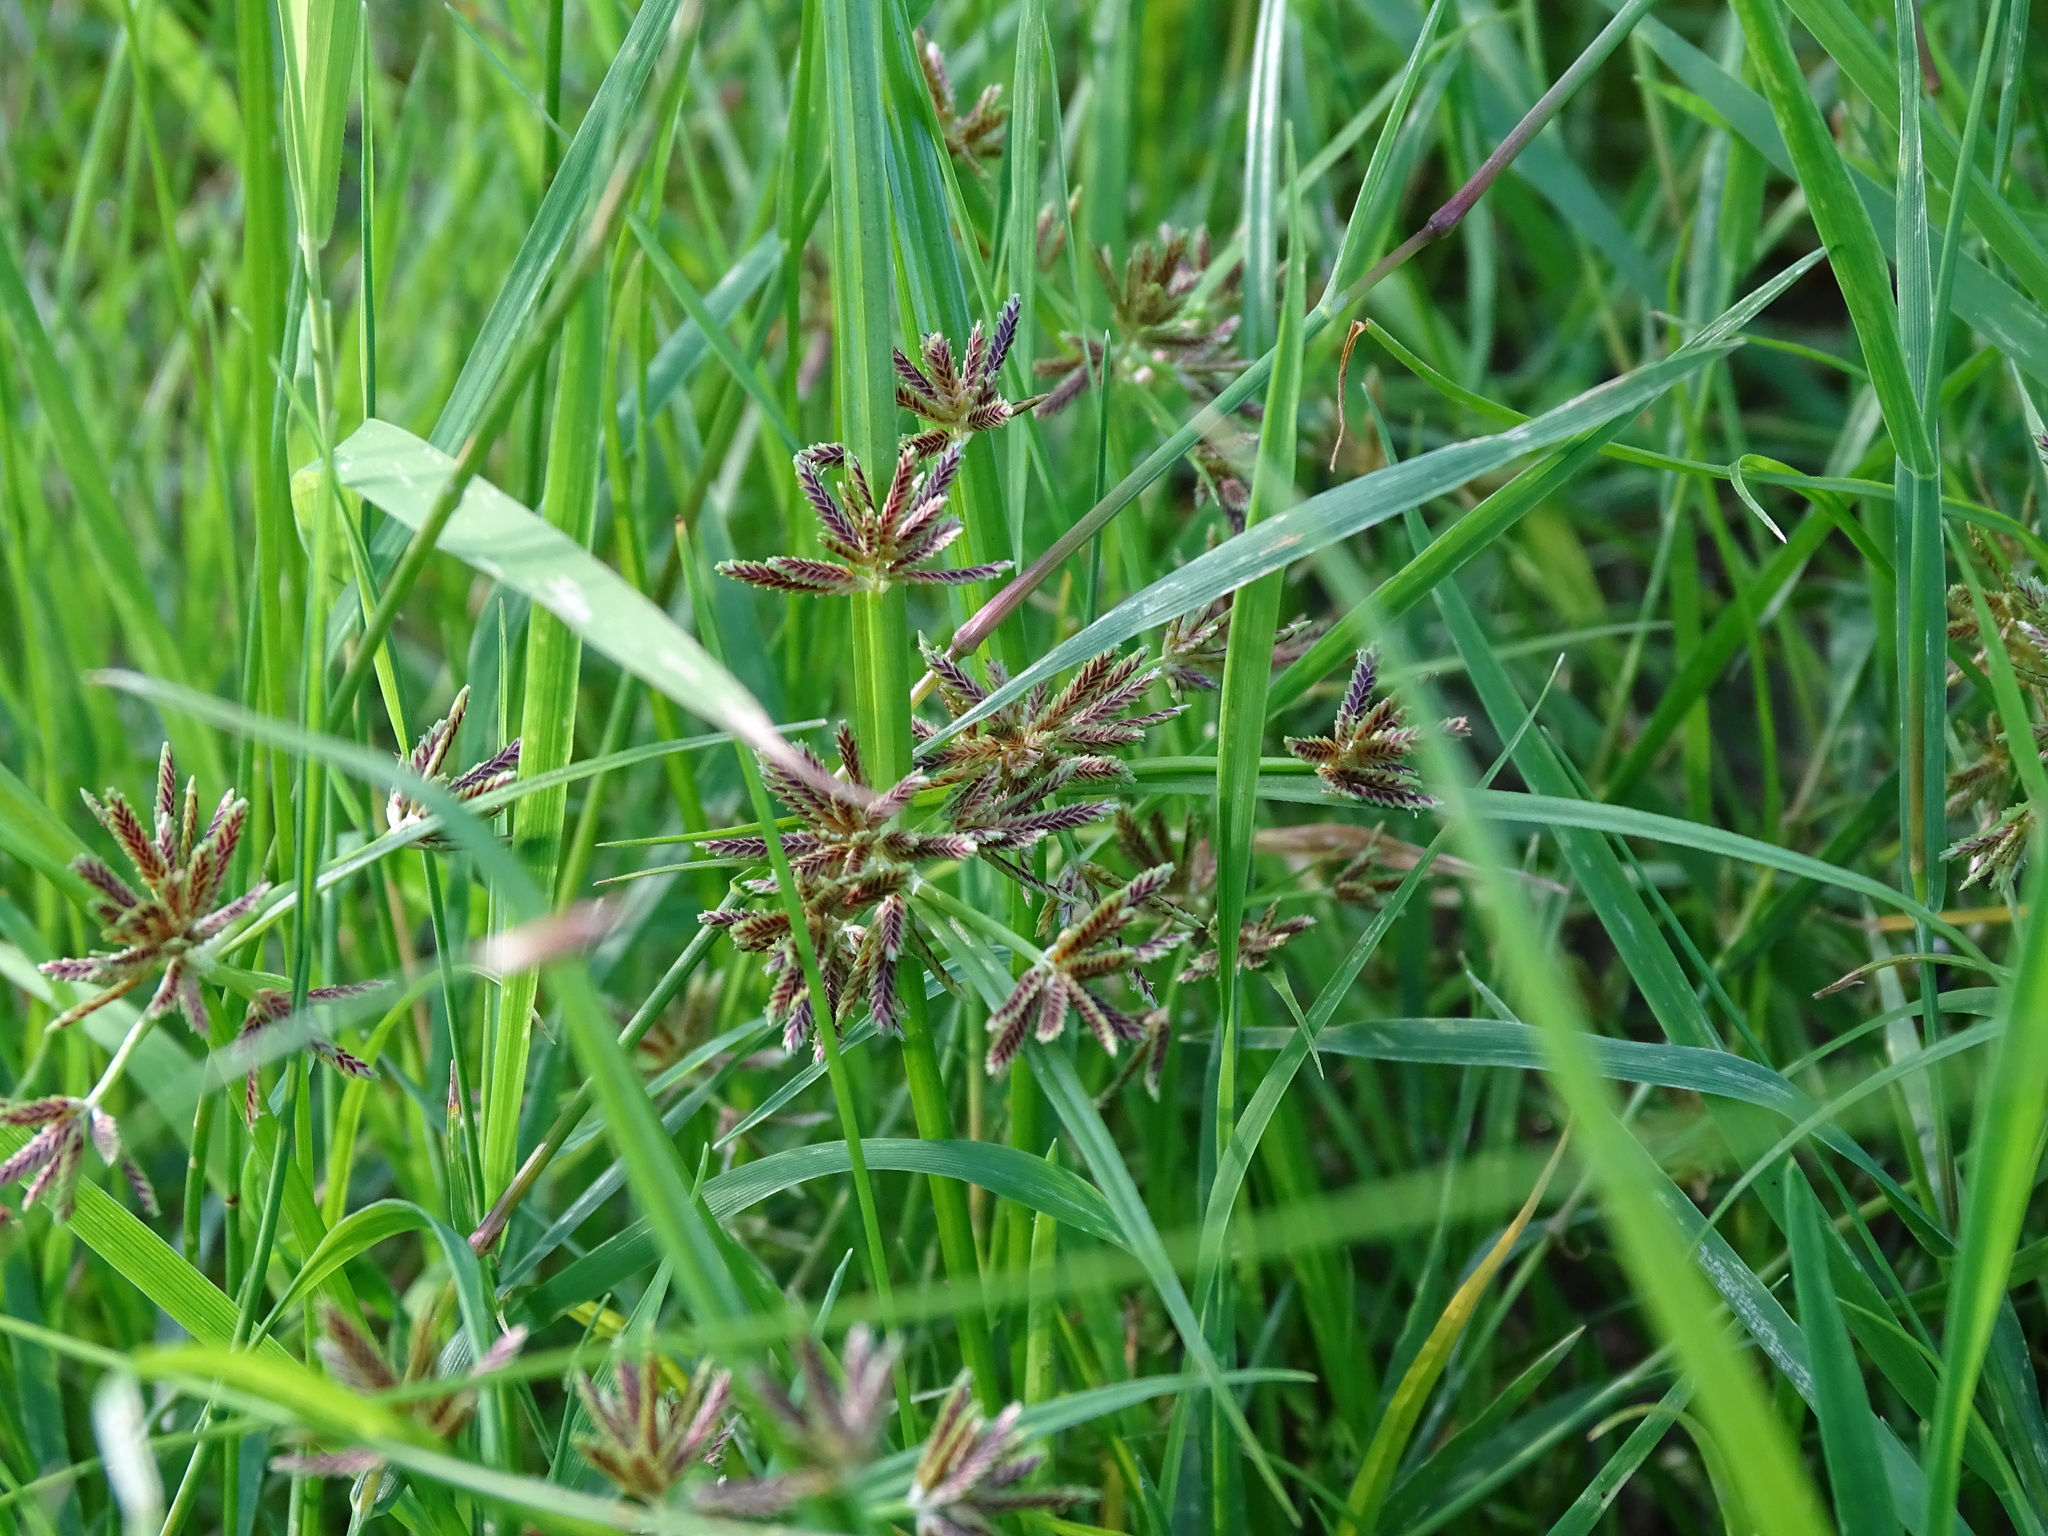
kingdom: Plantae
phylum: Tracheophyta
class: Liliopsida
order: Poales
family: Cyperaceae
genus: Cyperus
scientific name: Cyperus fuscus
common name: Brown galingale
